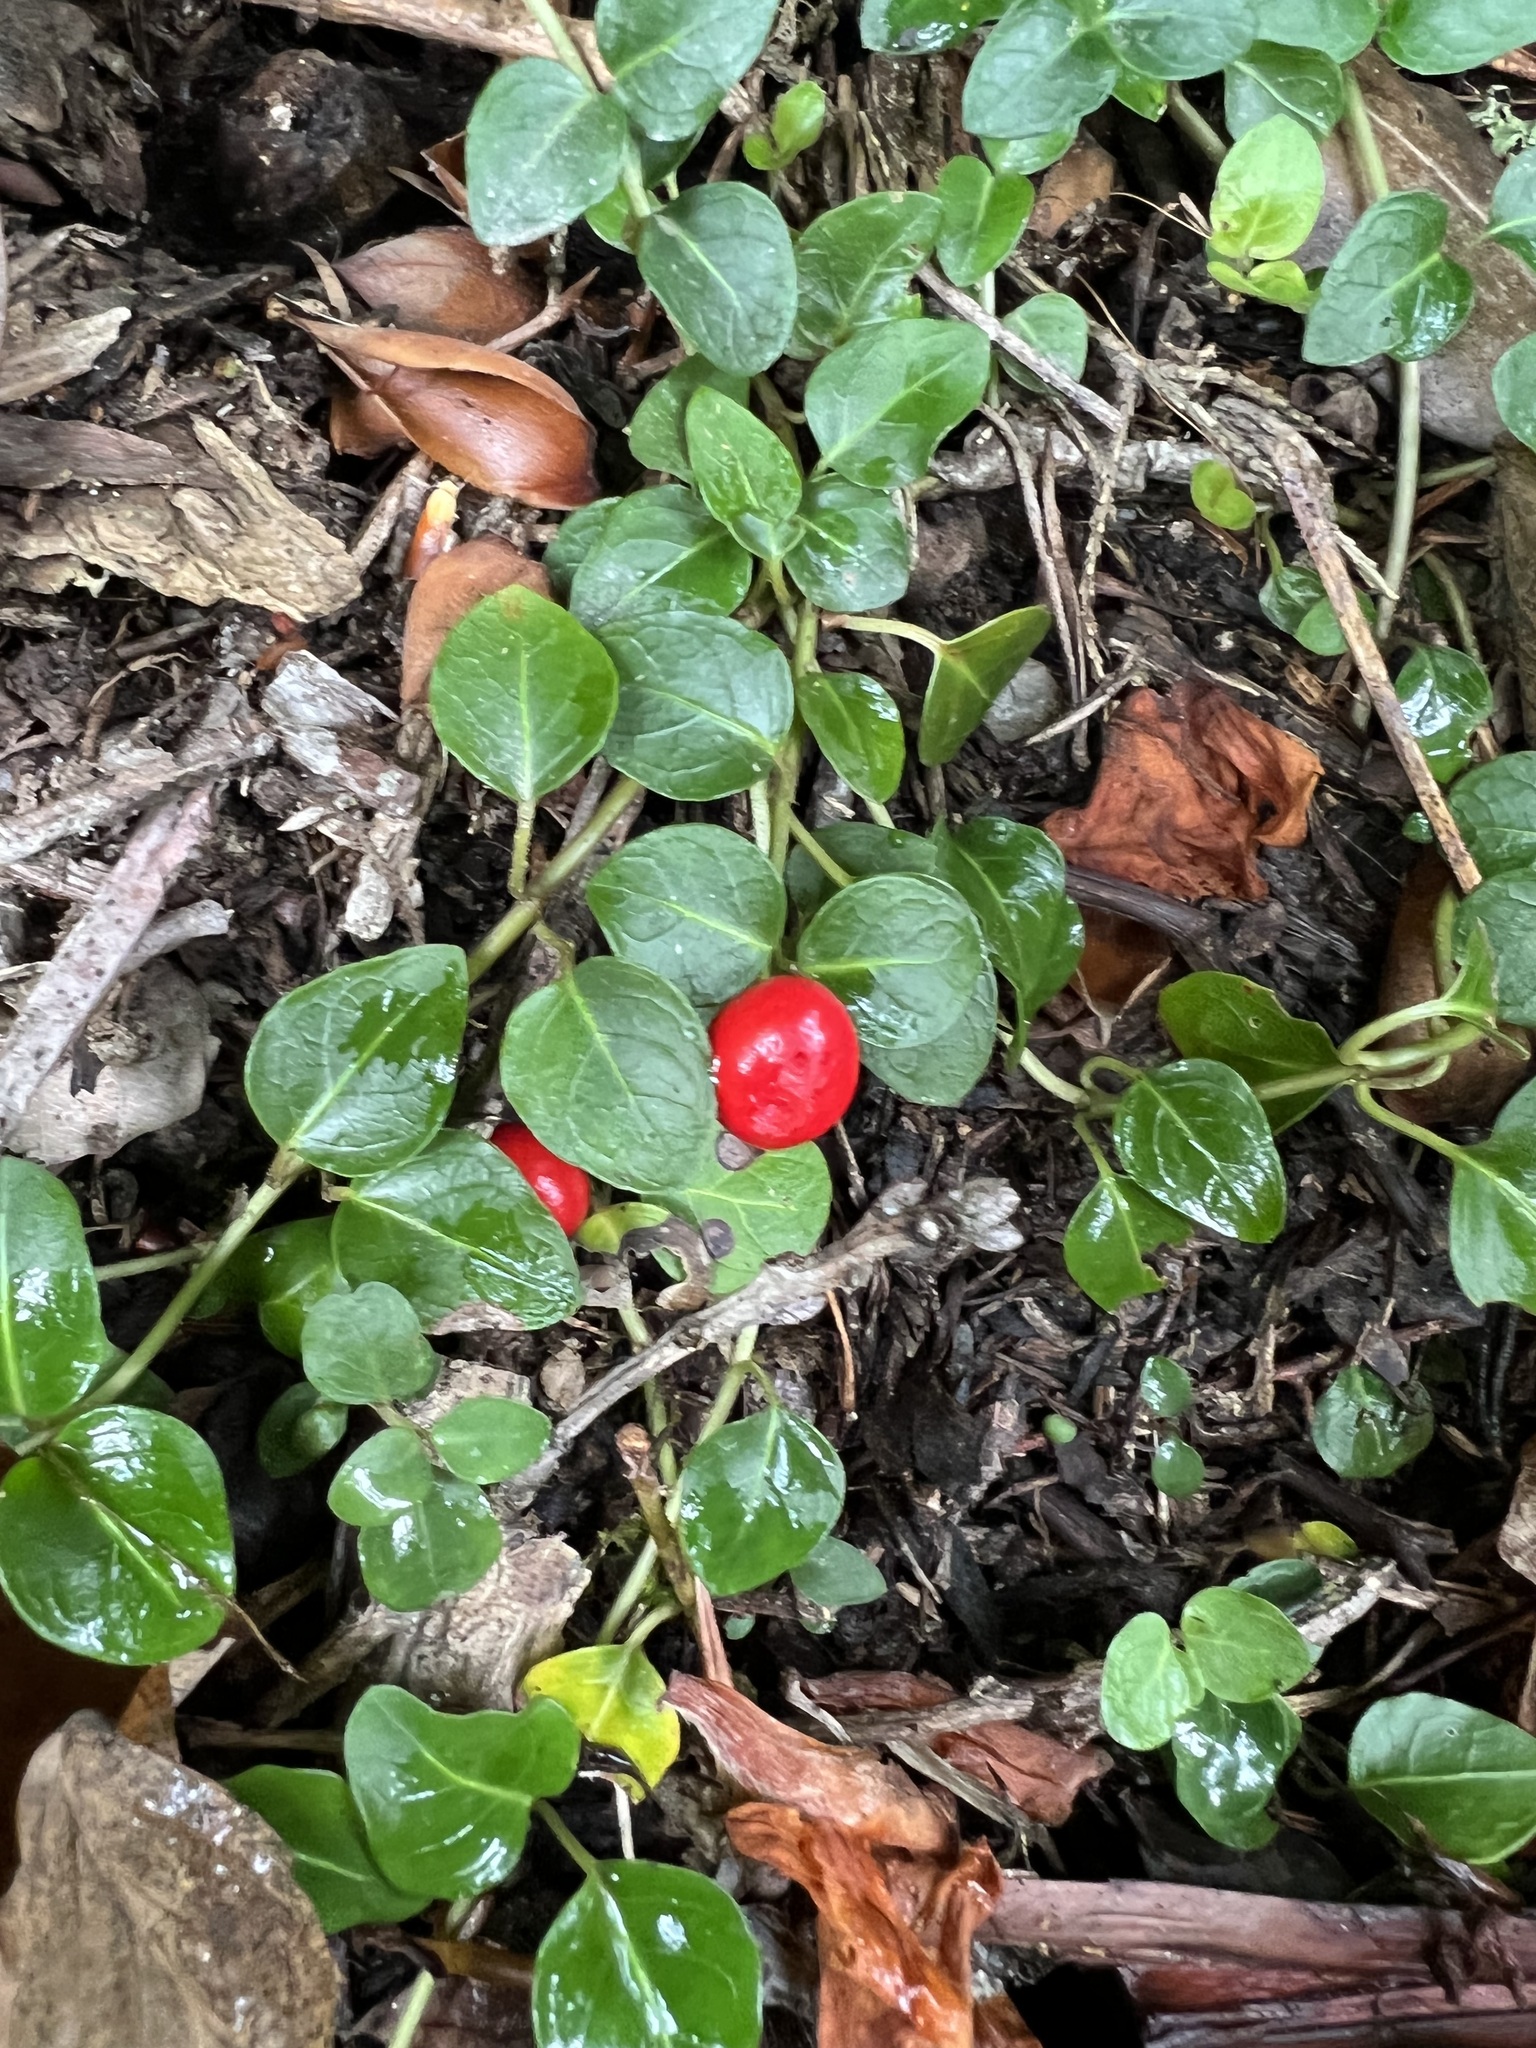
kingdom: Plantae
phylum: Tracheophyta
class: Magnoliopsida
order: Gentianales
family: Rubiaceae
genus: Mitchella
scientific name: Mitchella repens
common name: Partridge-berry
